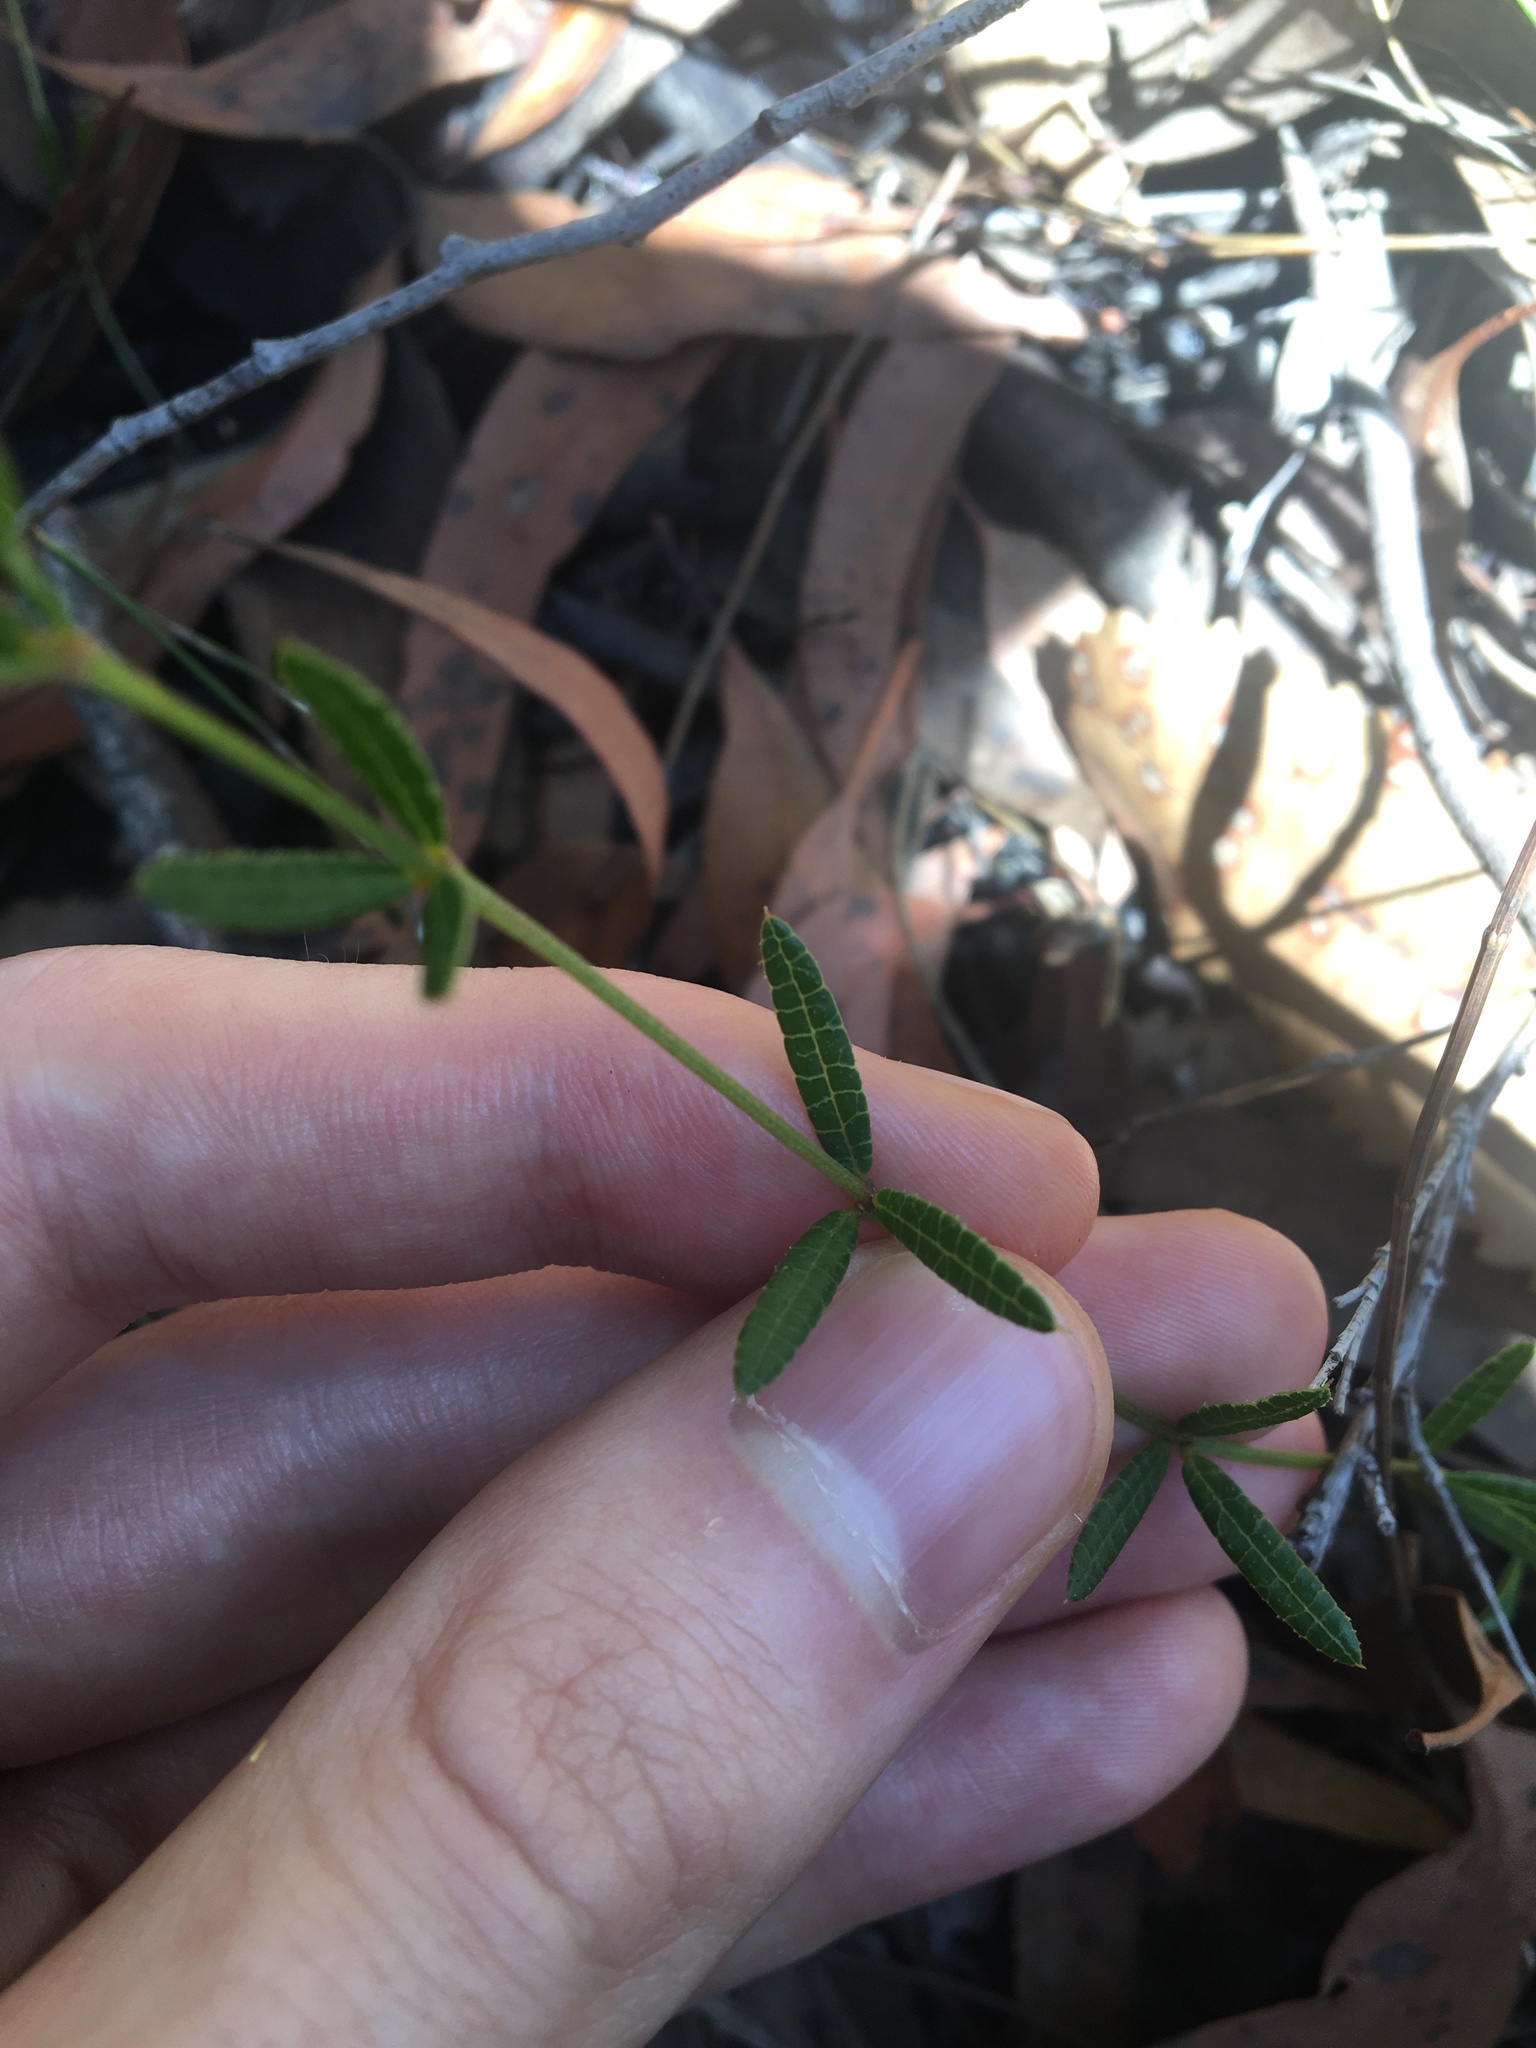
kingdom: Plantae
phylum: Tracheophyta
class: Magnoliopsida
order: Fabales
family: Fabaceae
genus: Mirbelia
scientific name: Mirbelia rubiifolia
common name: Heathy mirbelia
